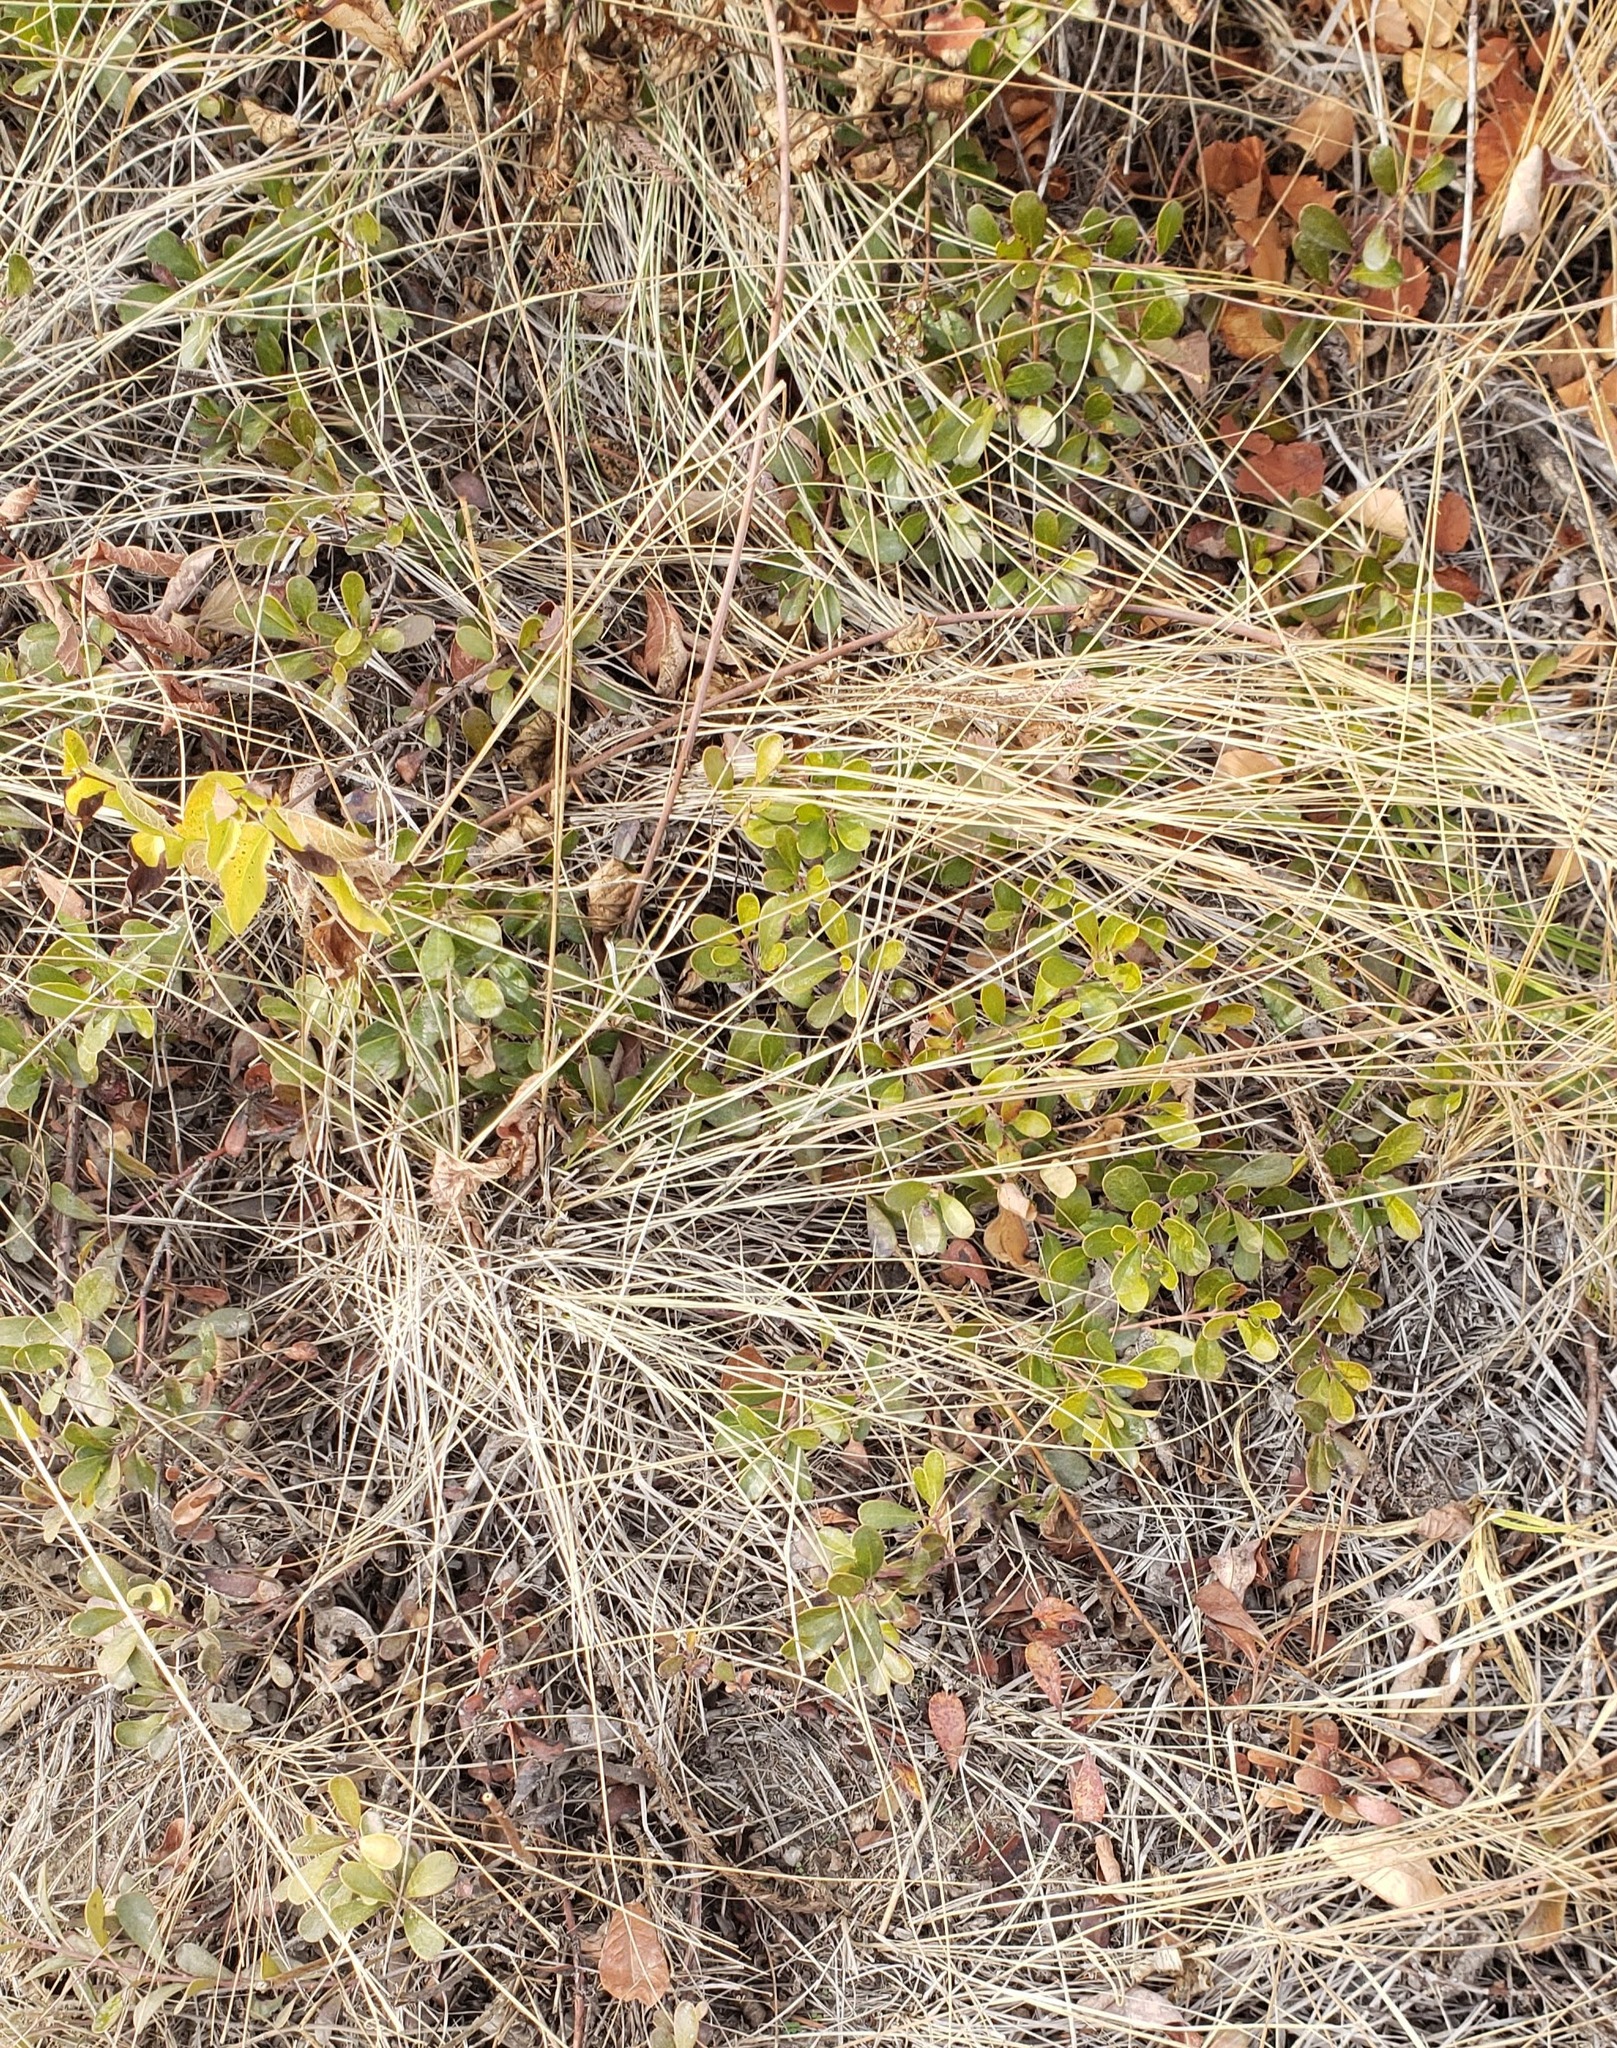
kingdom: Plantae
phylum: Tracheophyta
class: Magnoliopsida
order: Ericales
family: Ericaceae
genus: Arctostaphylos
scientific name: Arctostaphylos uva-ursi
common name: Bearberry
